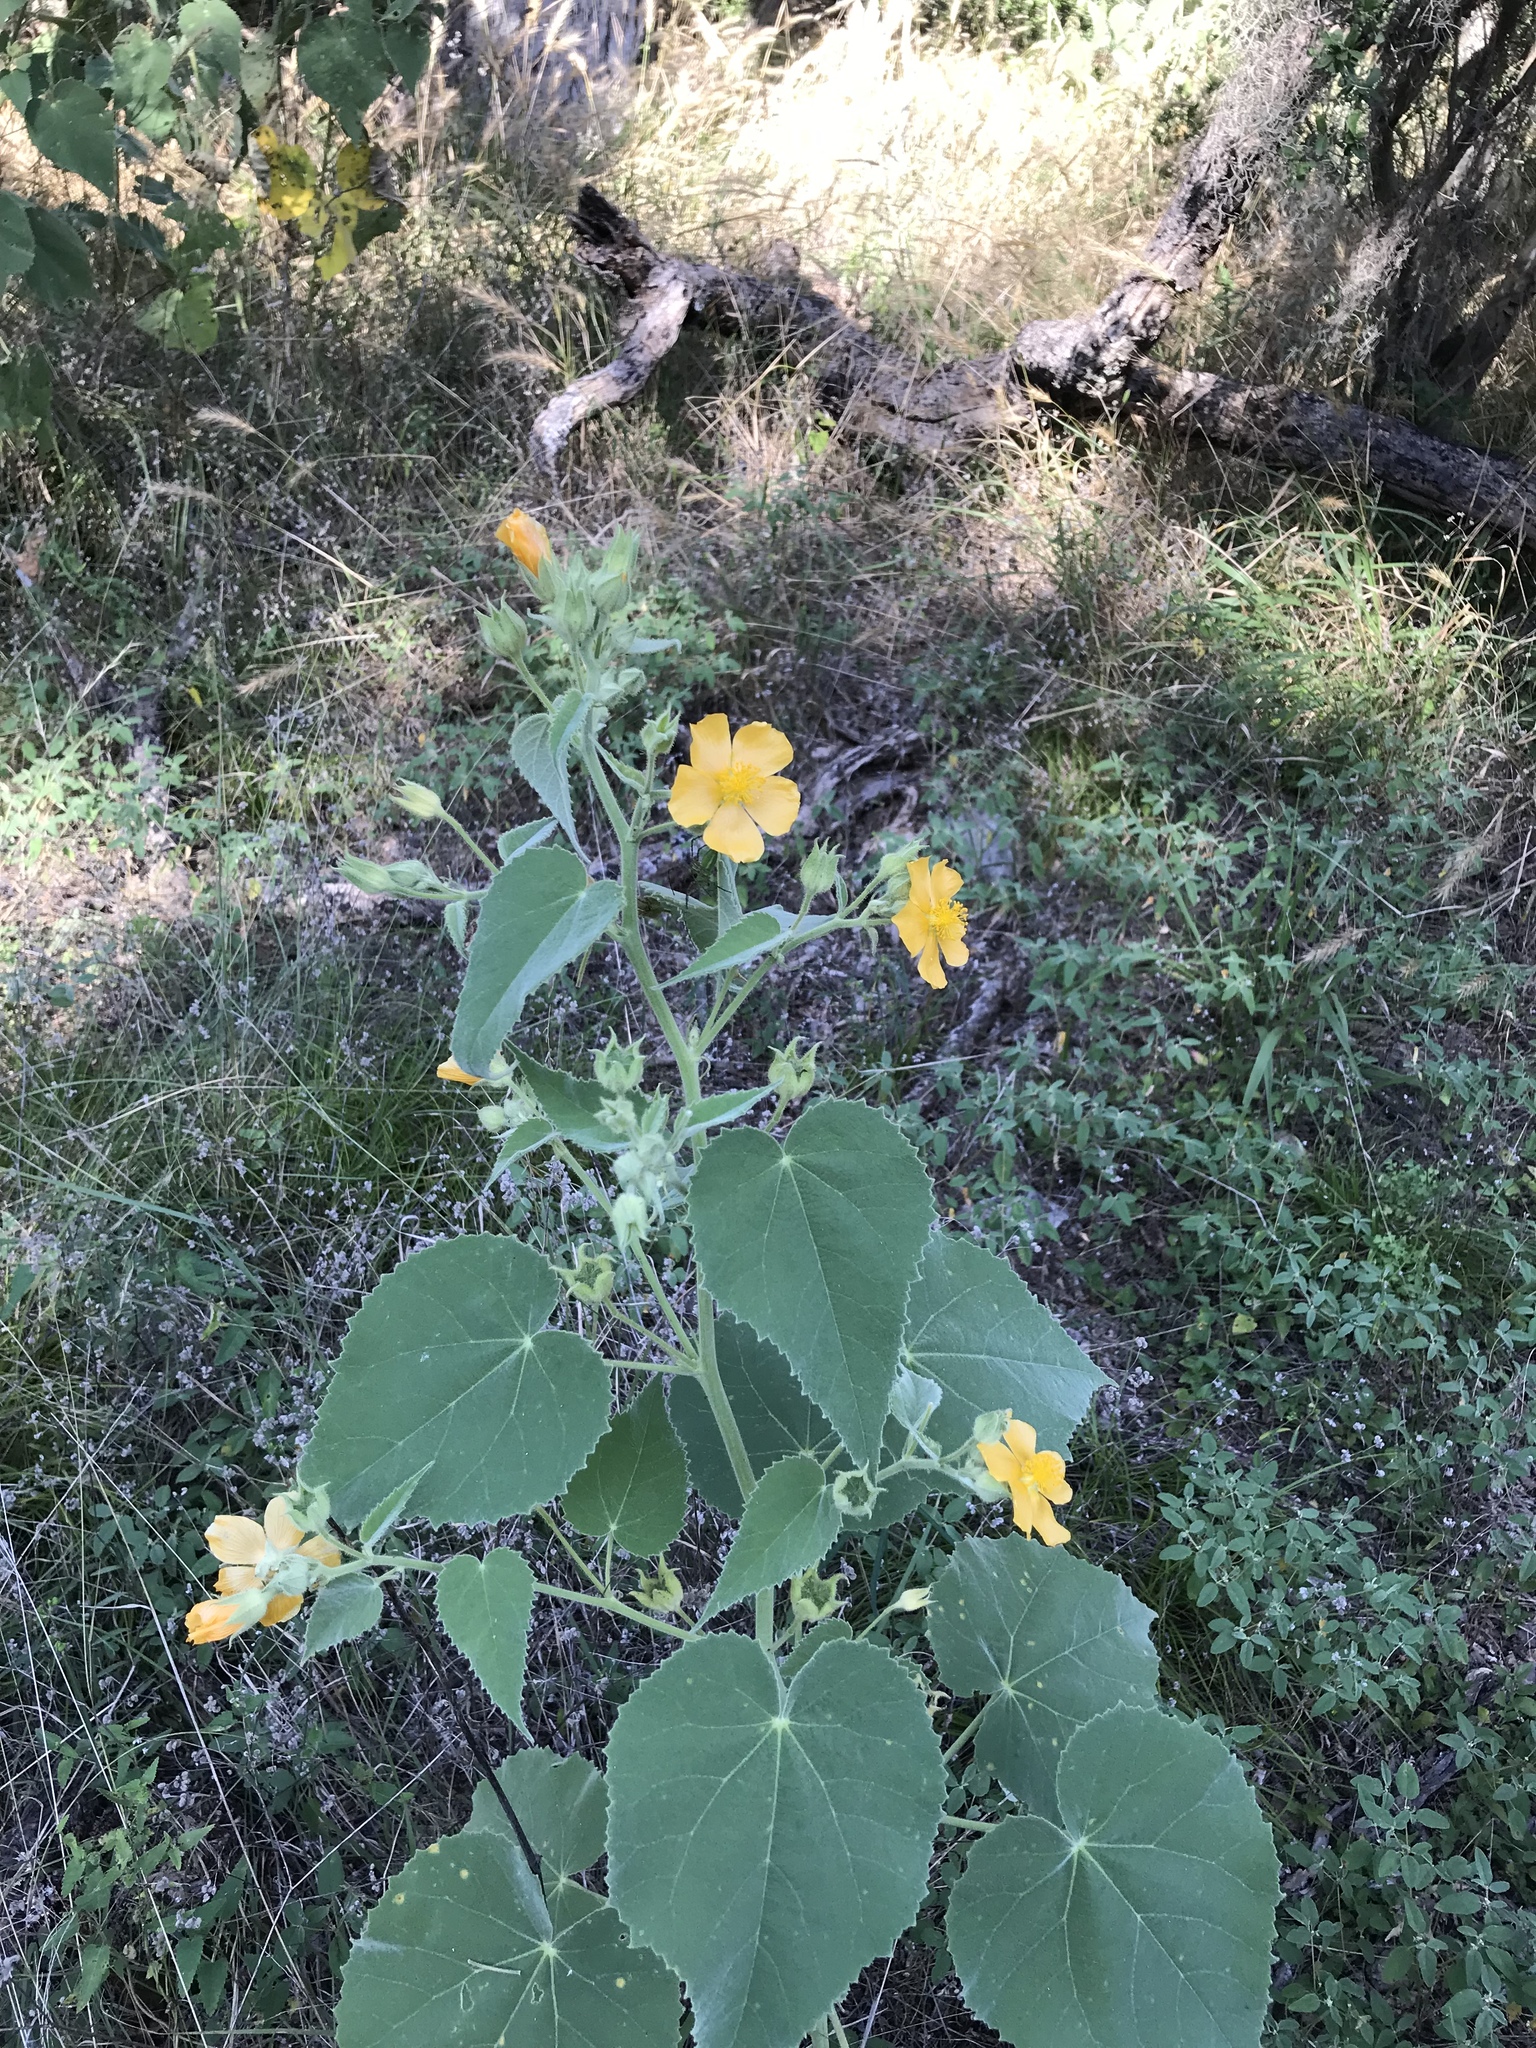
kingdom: Plantae
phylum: Tracheophyta
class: Magnoliopsida
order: Malvales
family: Malvaceae
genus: Allowissadula
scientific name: Allowissadula holosericea
